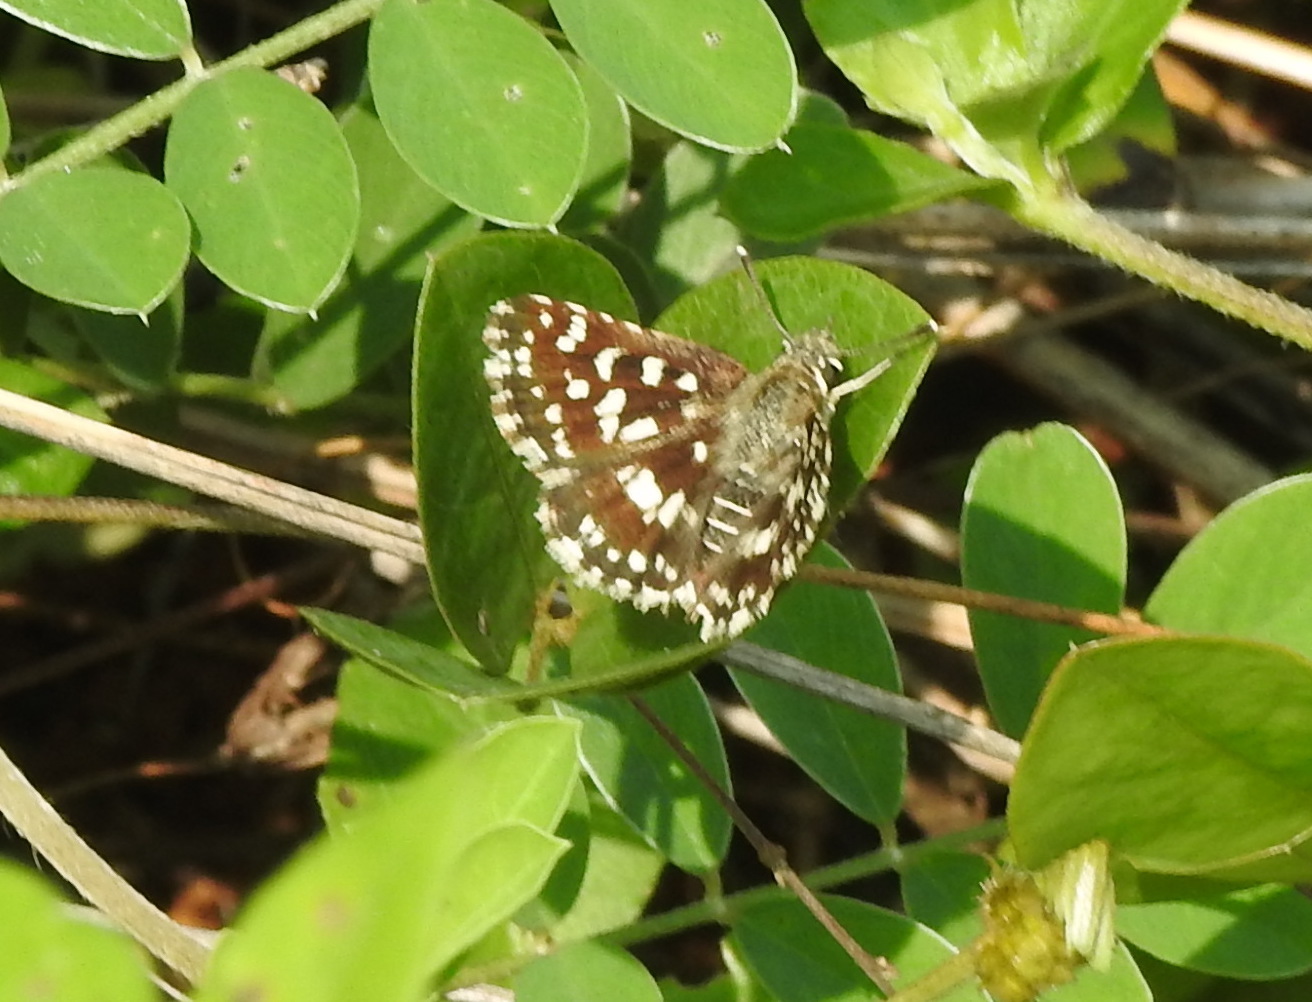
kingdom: Animalia
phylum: Arthropoda
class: Insecta
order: Lepidoptera
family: Hesperiidae
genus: Spialia
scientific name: Spialia galba
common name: Indian skipper
